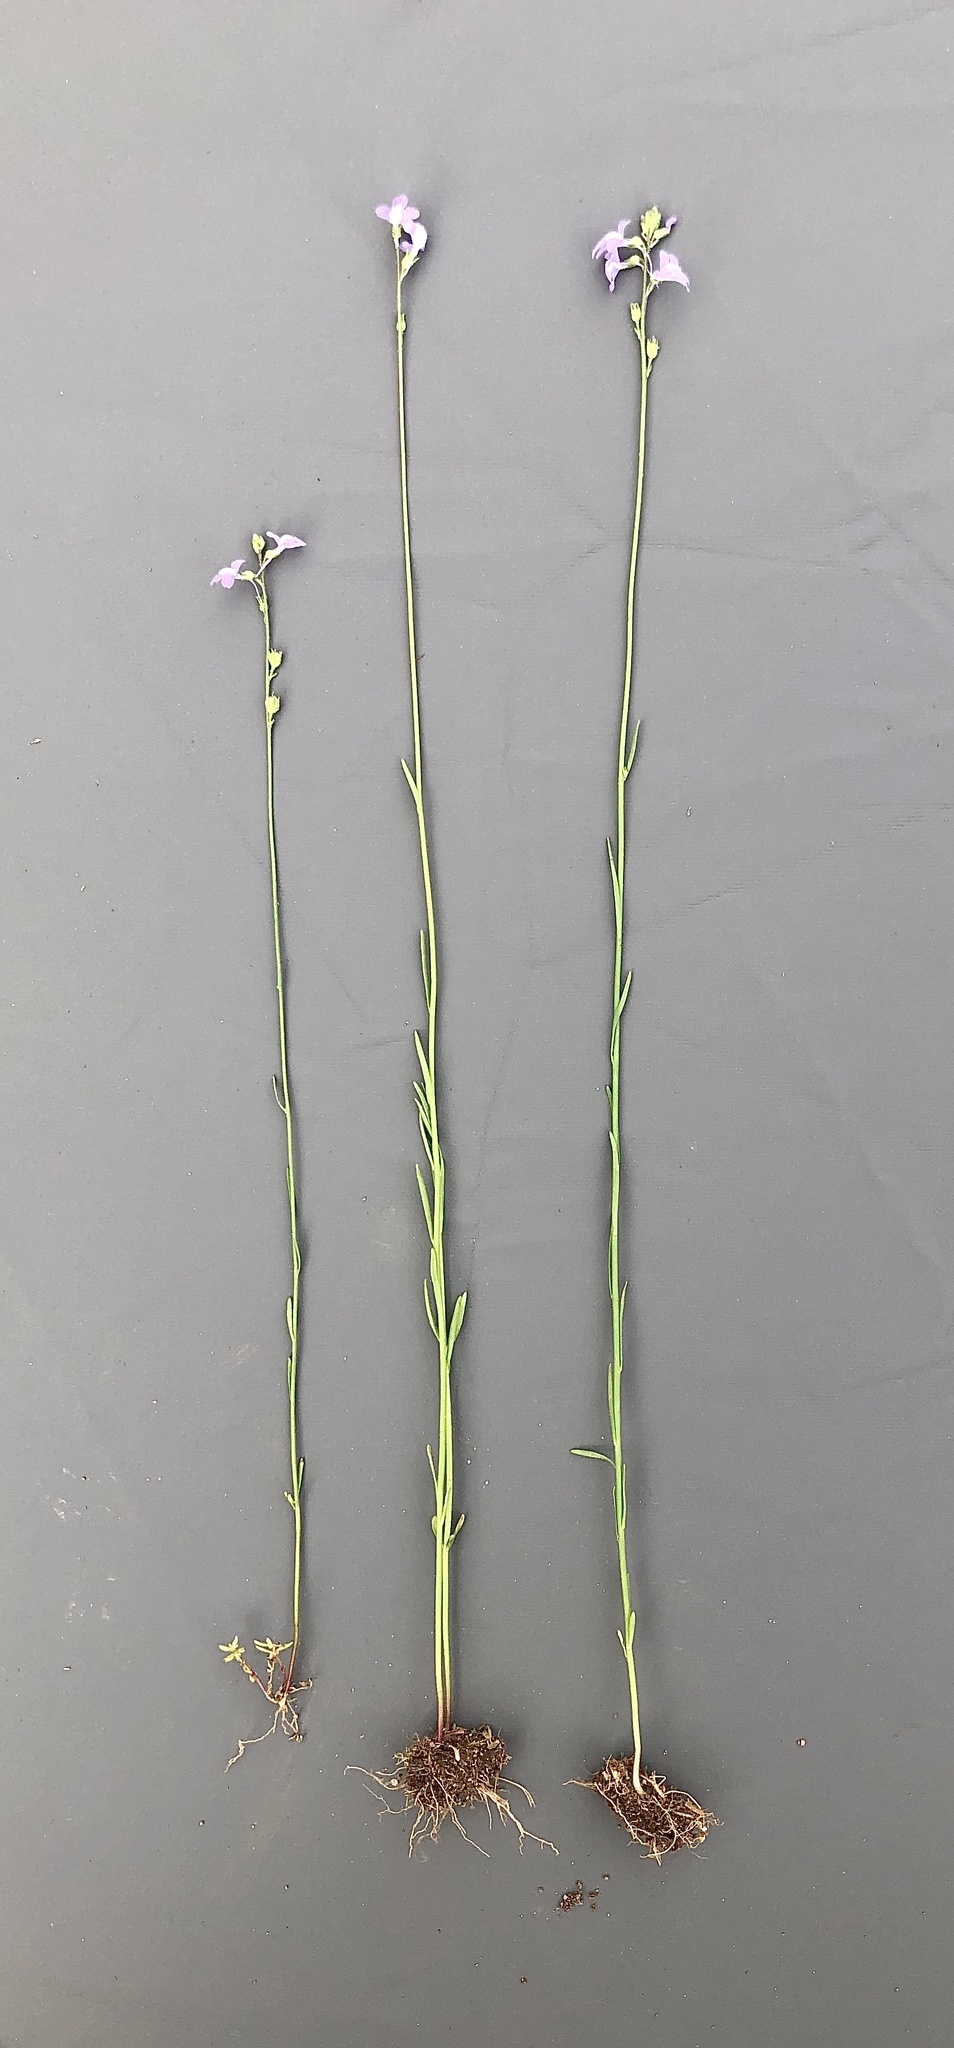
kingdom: Plantae
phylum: Tracheophyta
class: Magnoliopsida
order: Lamiales
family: Plantaginaceae
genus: Nuttallanthus
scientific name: Nuttallanthus canadensis
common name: Blue toadflax
